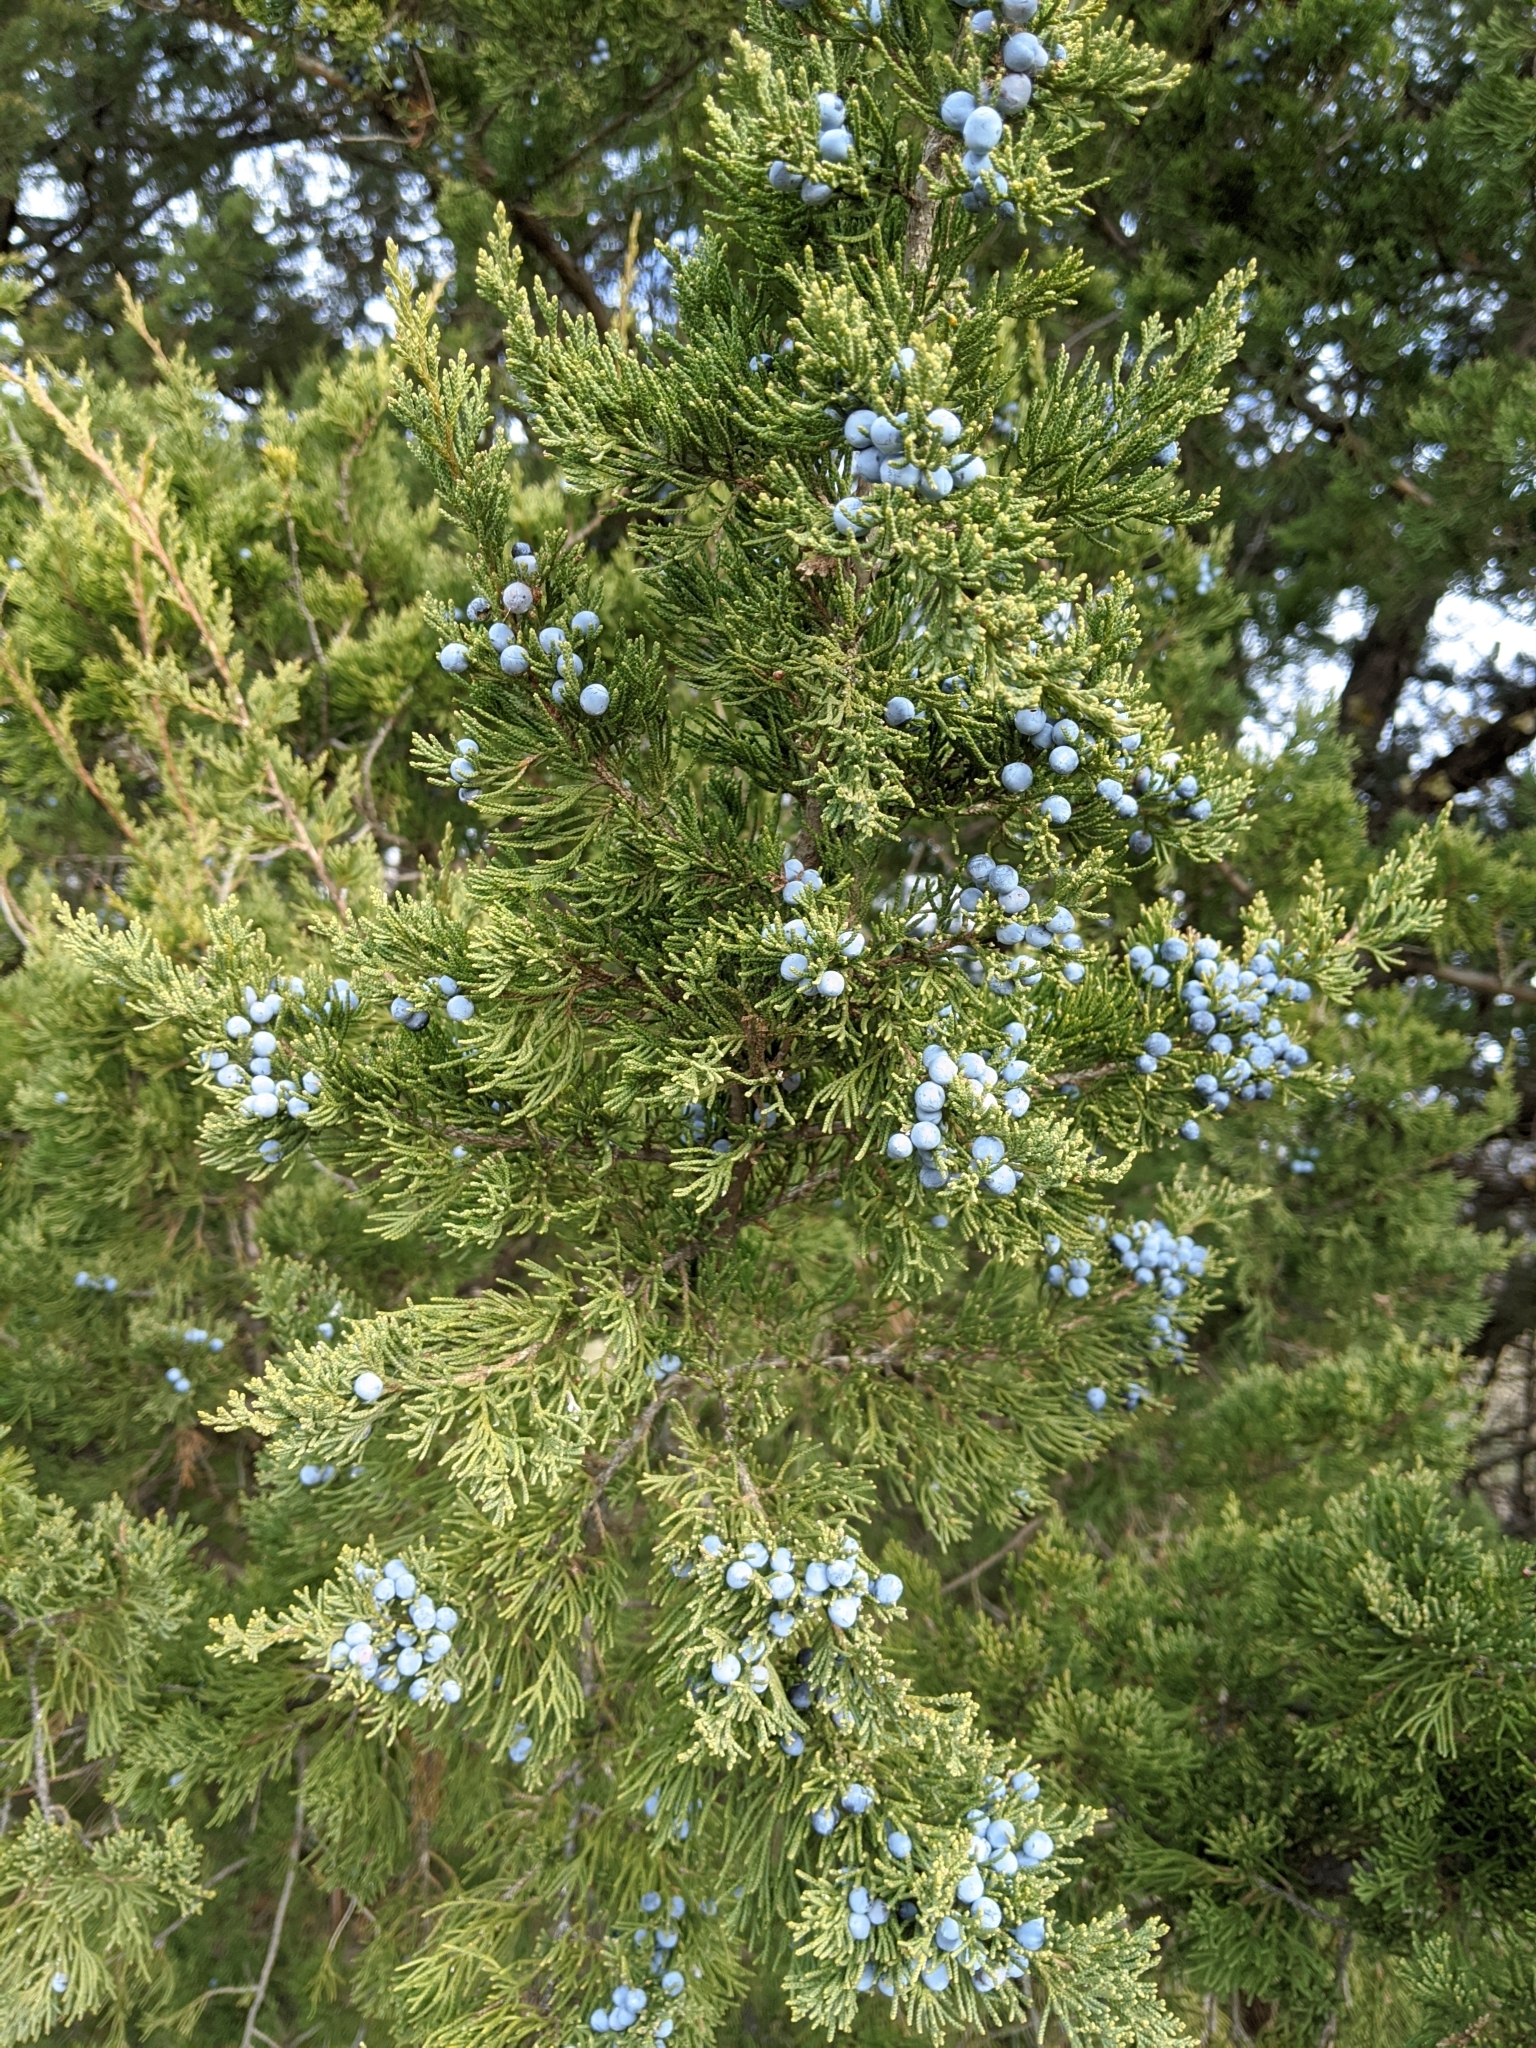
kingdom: Plantae
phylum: Tracheophyta
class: Pinopsida
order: Pinales
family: Cupressaceae
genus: Juniperus
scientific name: Juniperus virginiana
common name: Red juniper
